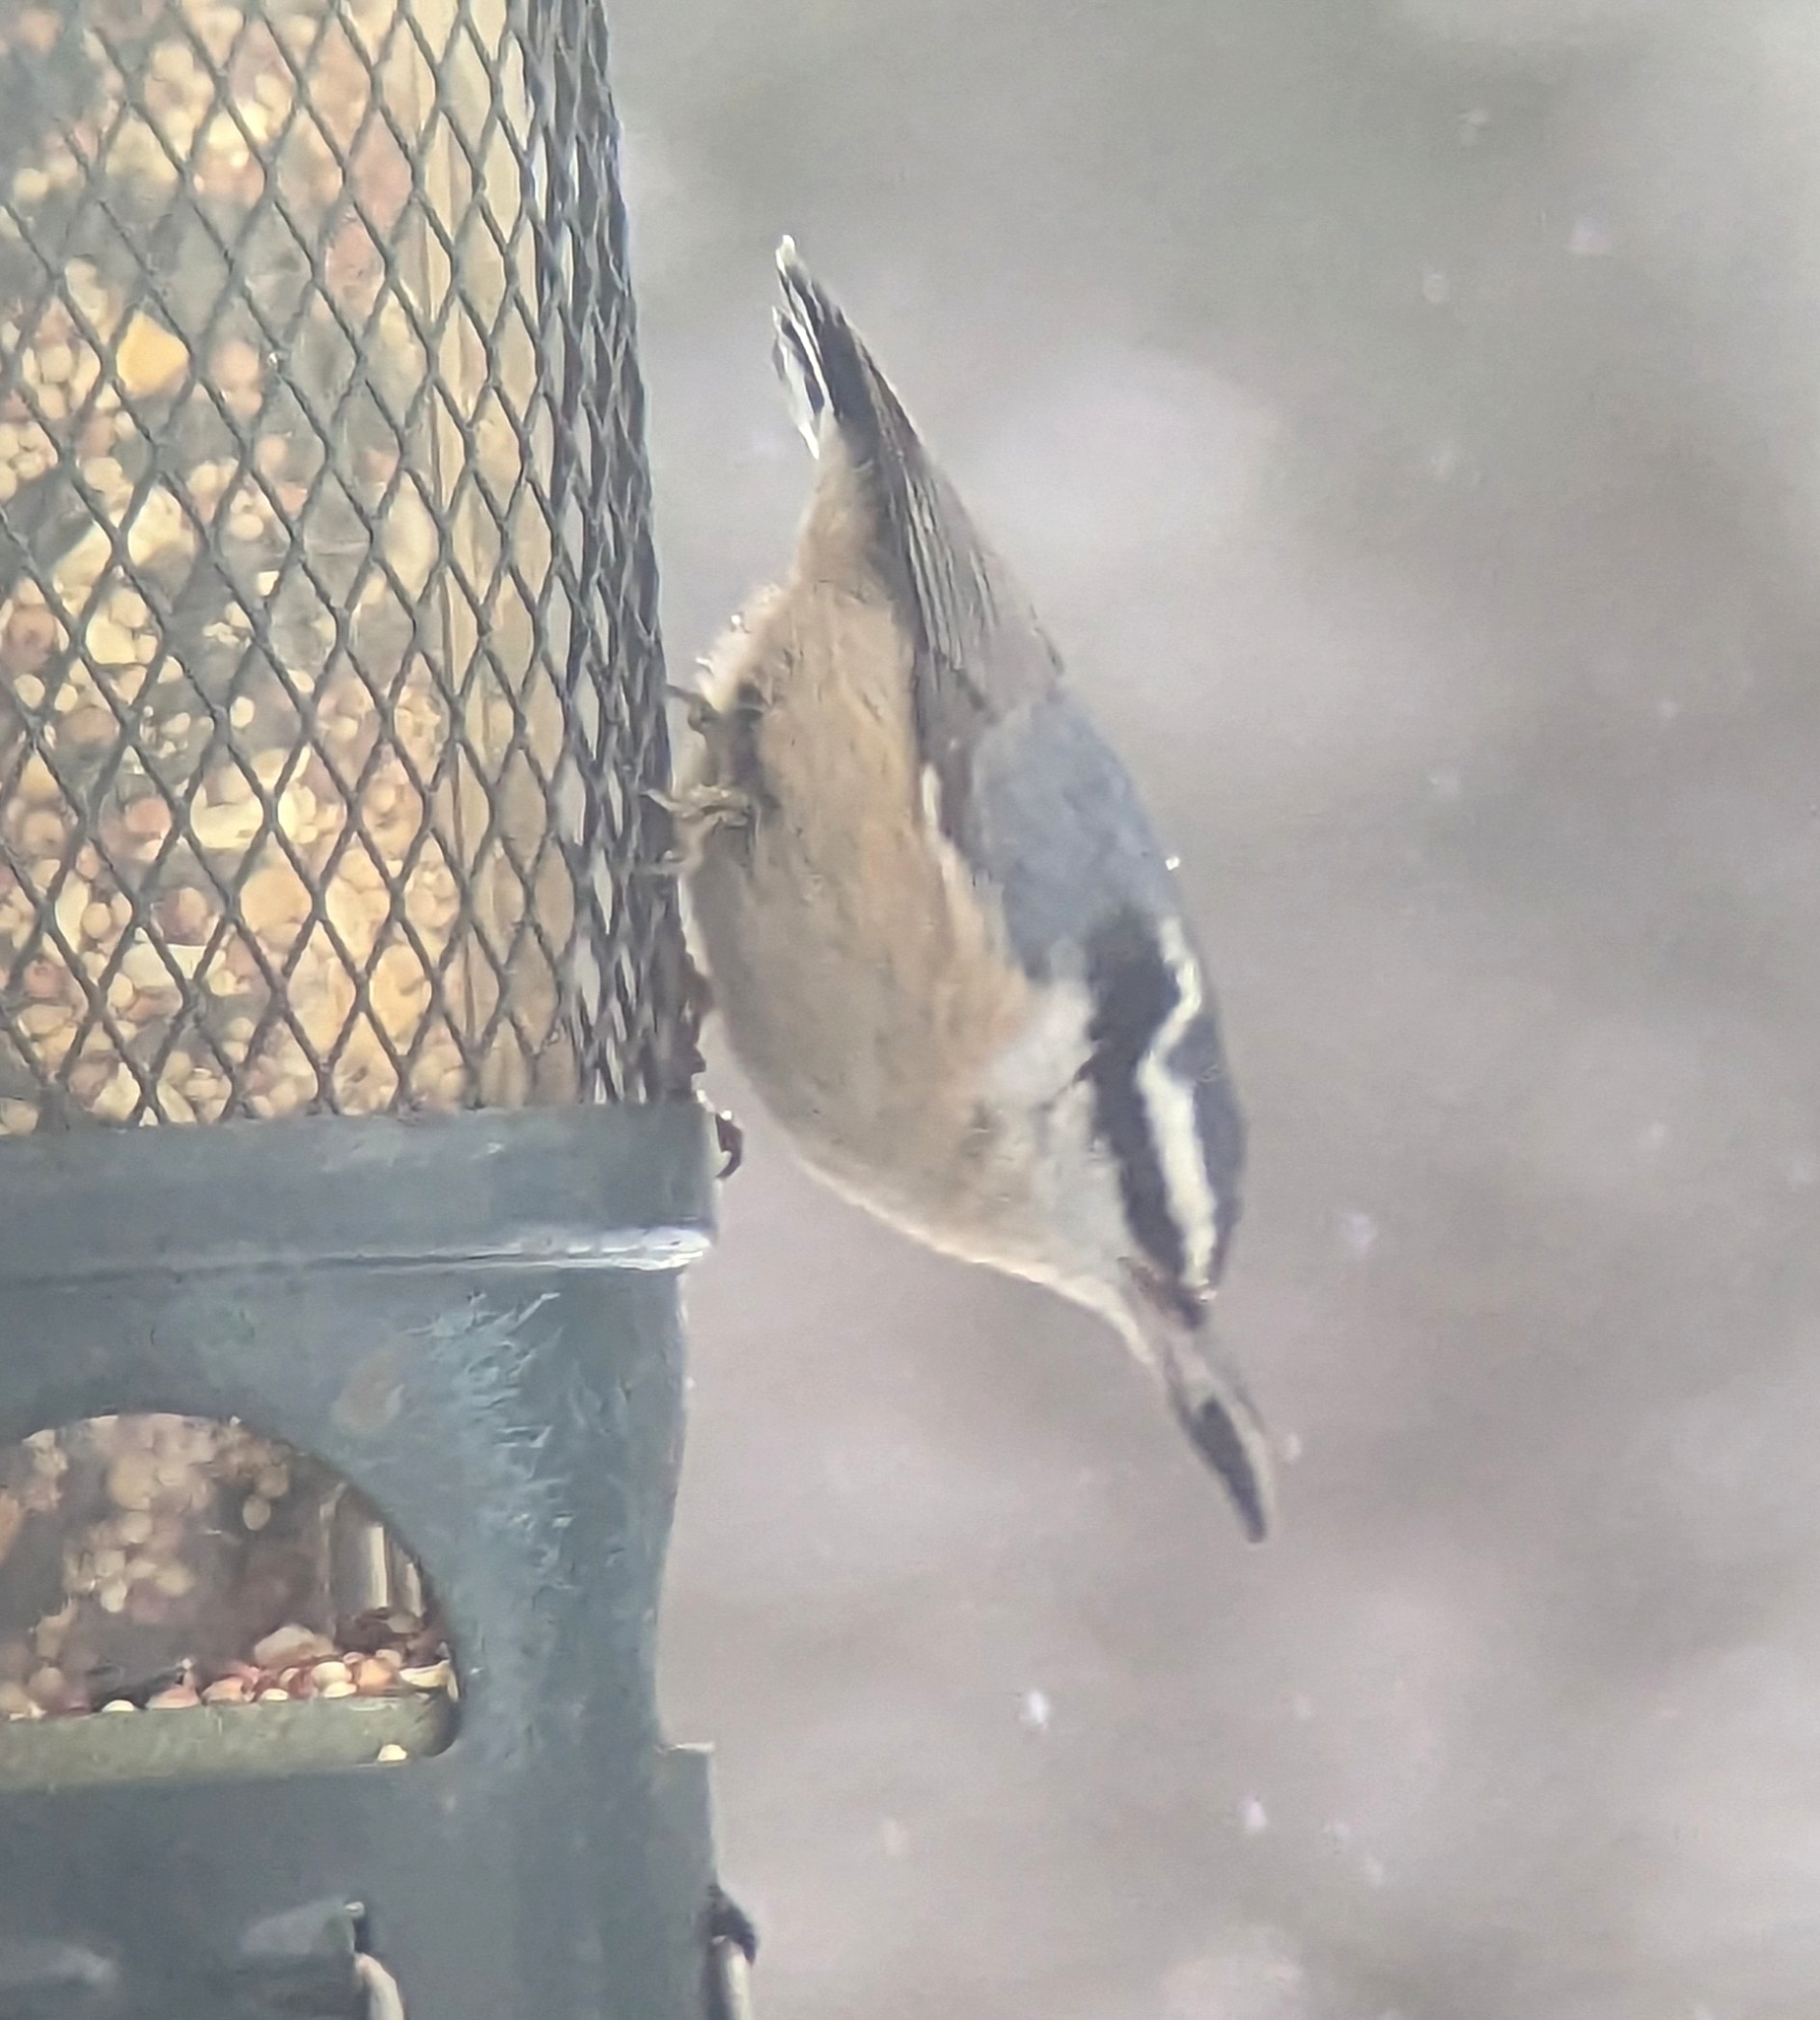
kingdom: Animalia
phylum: Chordata
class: Aves
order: Passeriformes
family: Sittidae
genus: Sitta
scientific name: Sitta canadensis
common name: Red-breasted nuthatch
